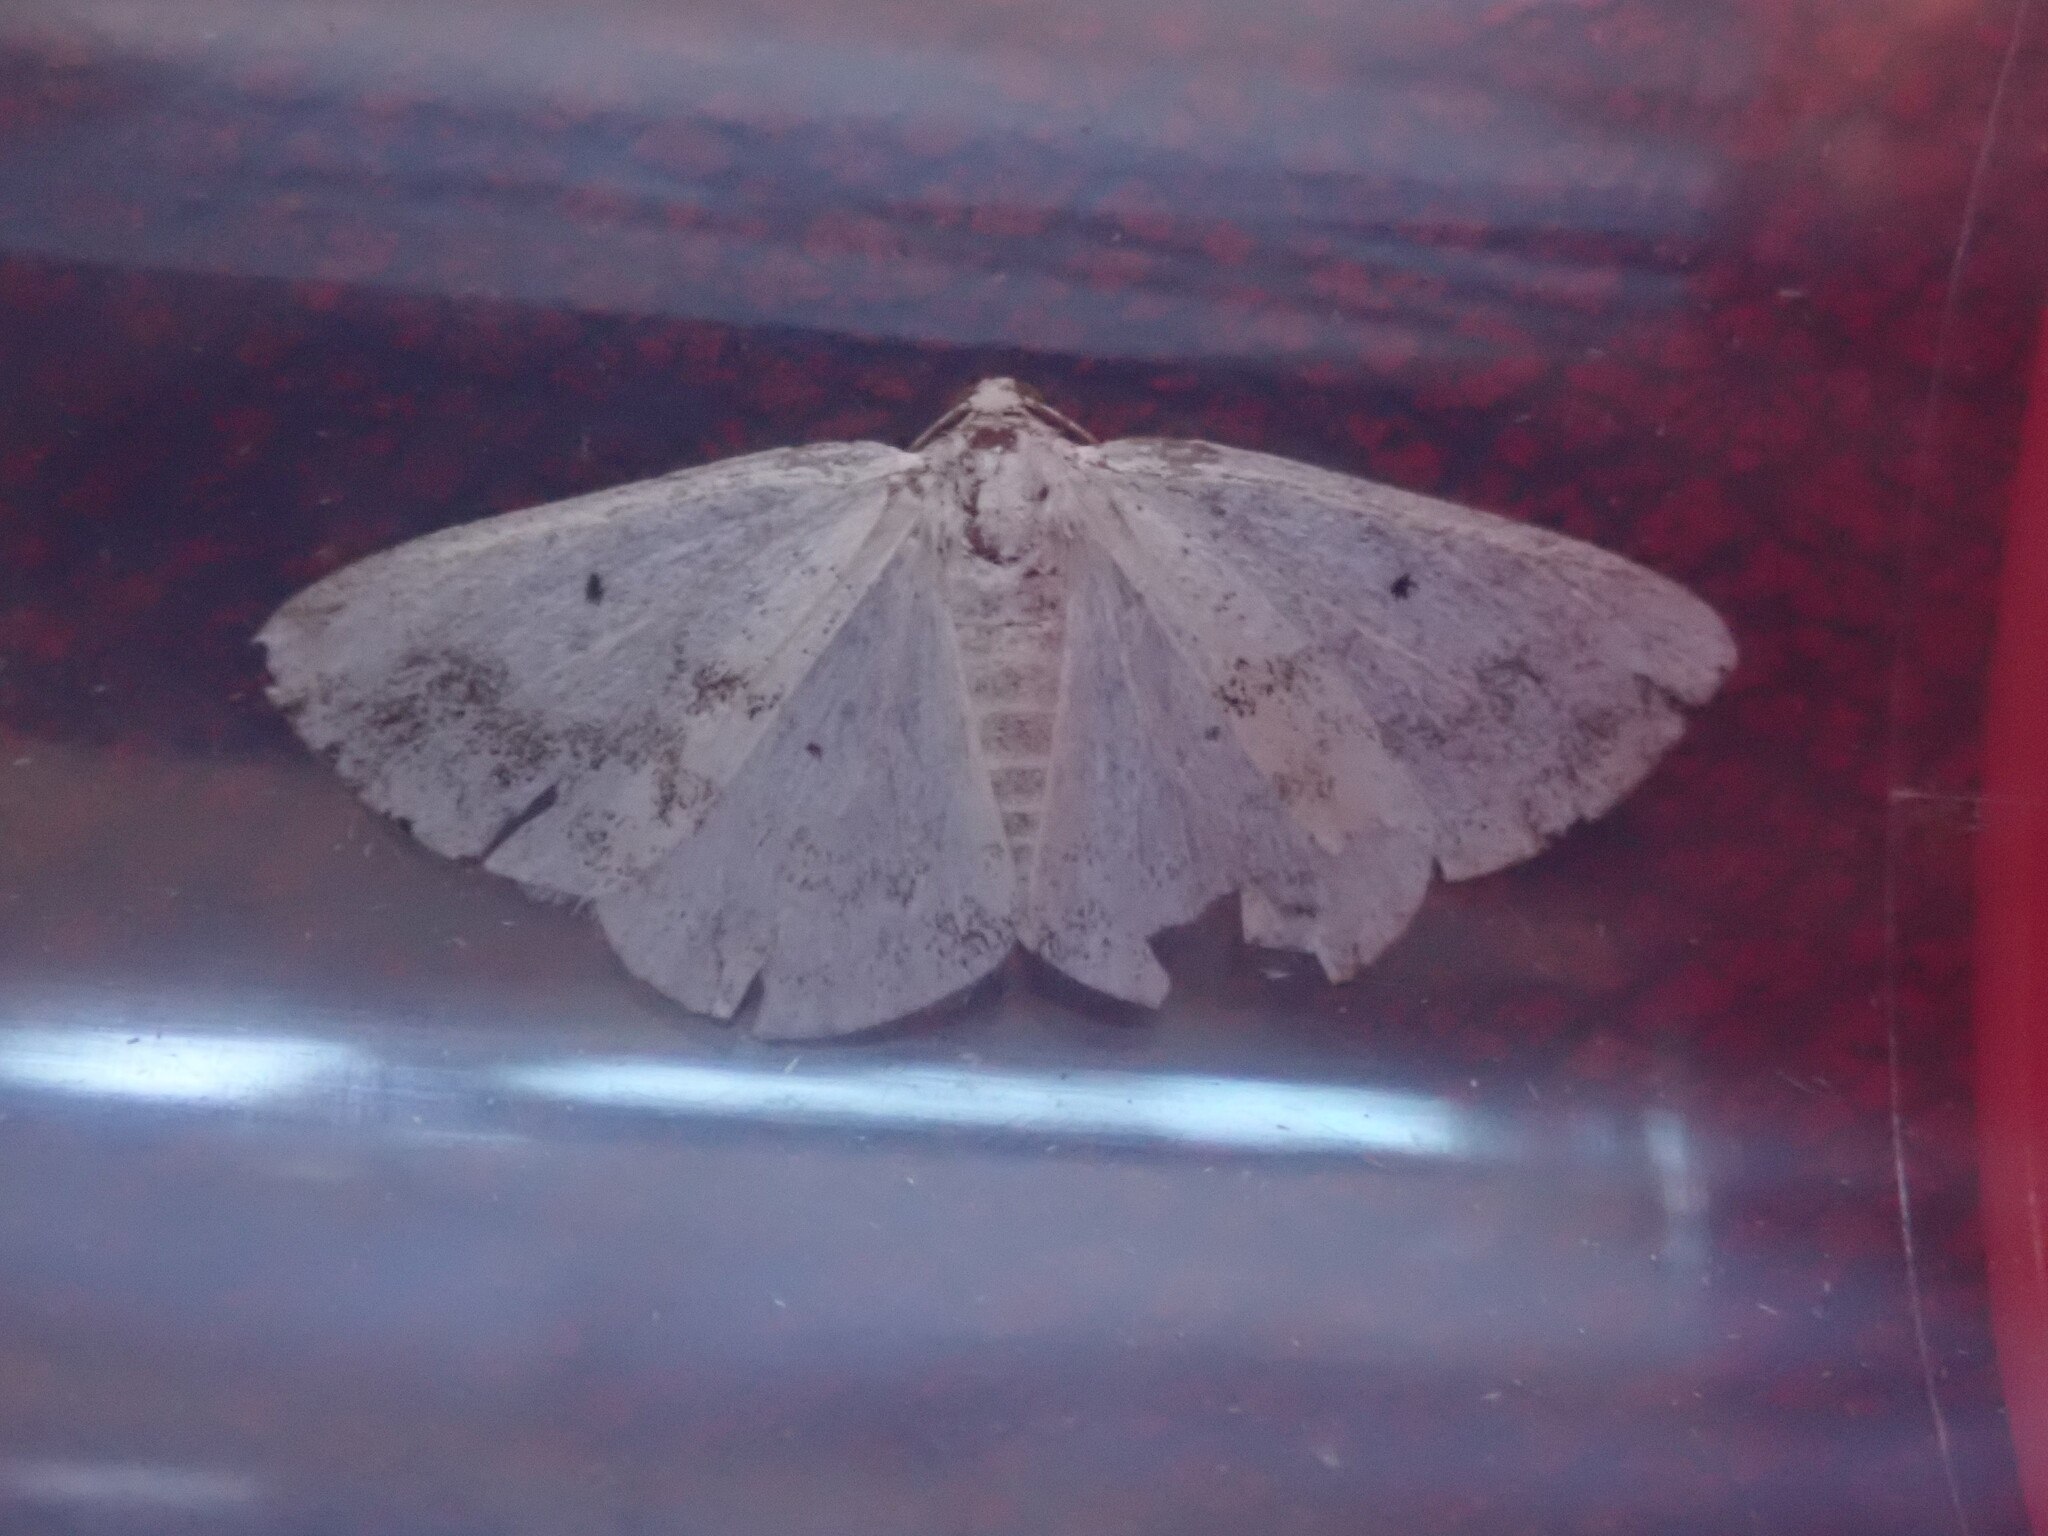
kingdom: Animalia
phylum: Arthropoda
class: Insecta
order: Lepidoptera
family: Geometridae
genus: Lomographa
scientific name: Lomographa temerata
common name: Clouded silver
